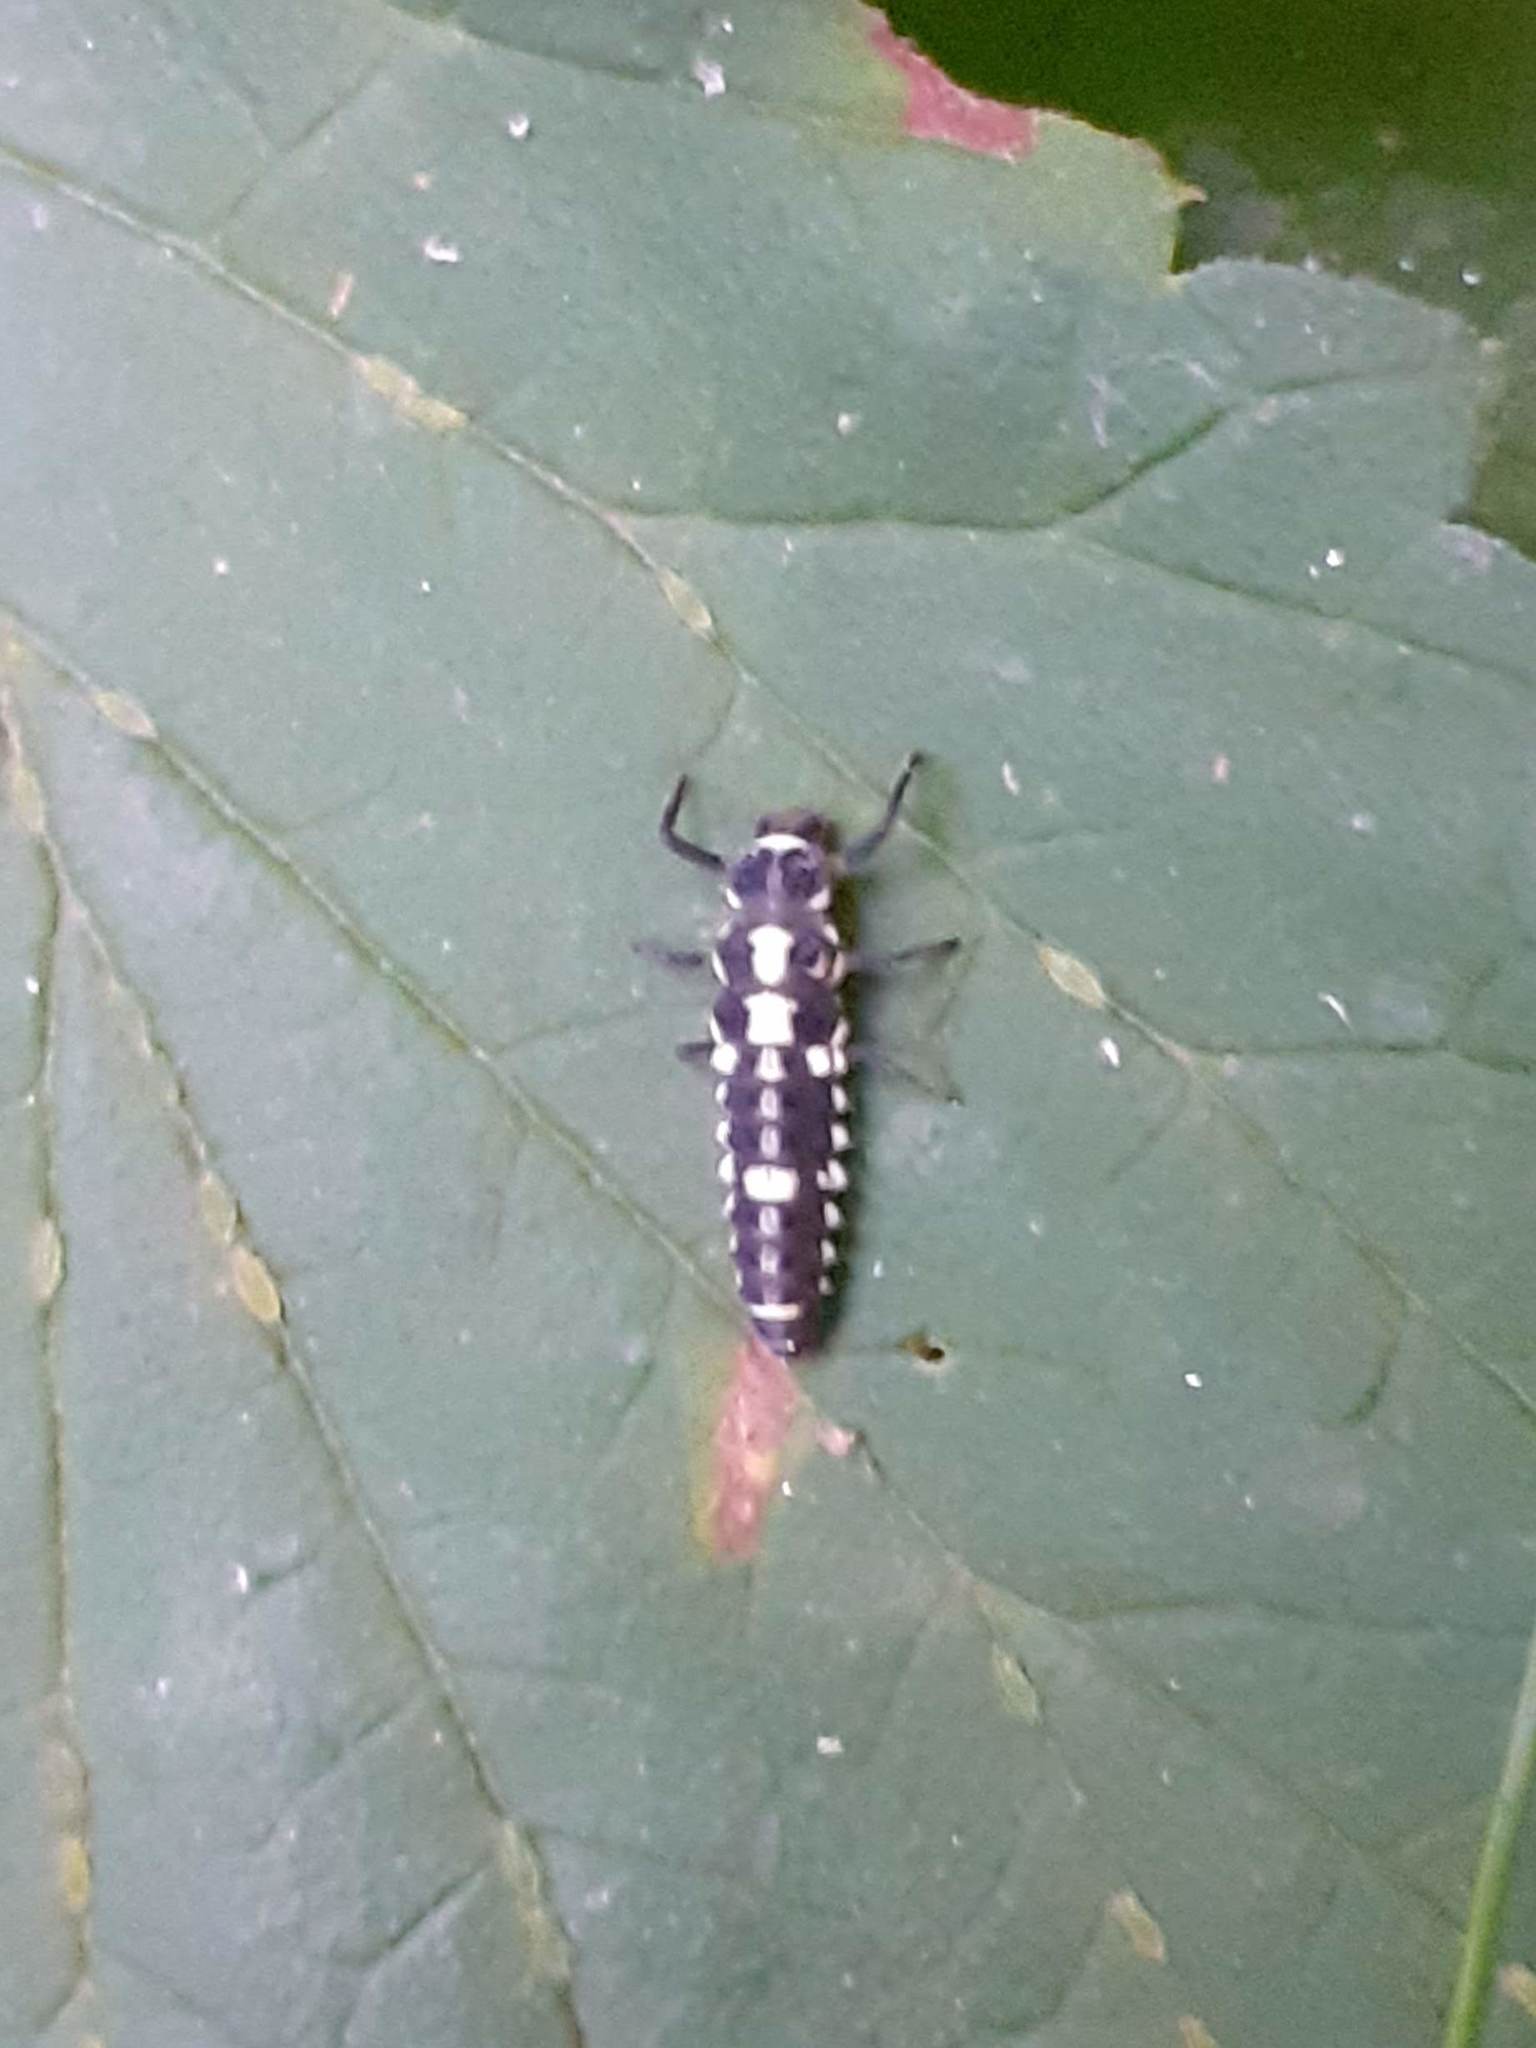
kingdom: Animalia
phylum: Arthropoda
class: Insecta
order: Coleoptera
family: Coccinellidae
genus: Propylaea
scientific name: Propylaea quatuordecimpunctata
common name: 14-spotted ladybird beetle
